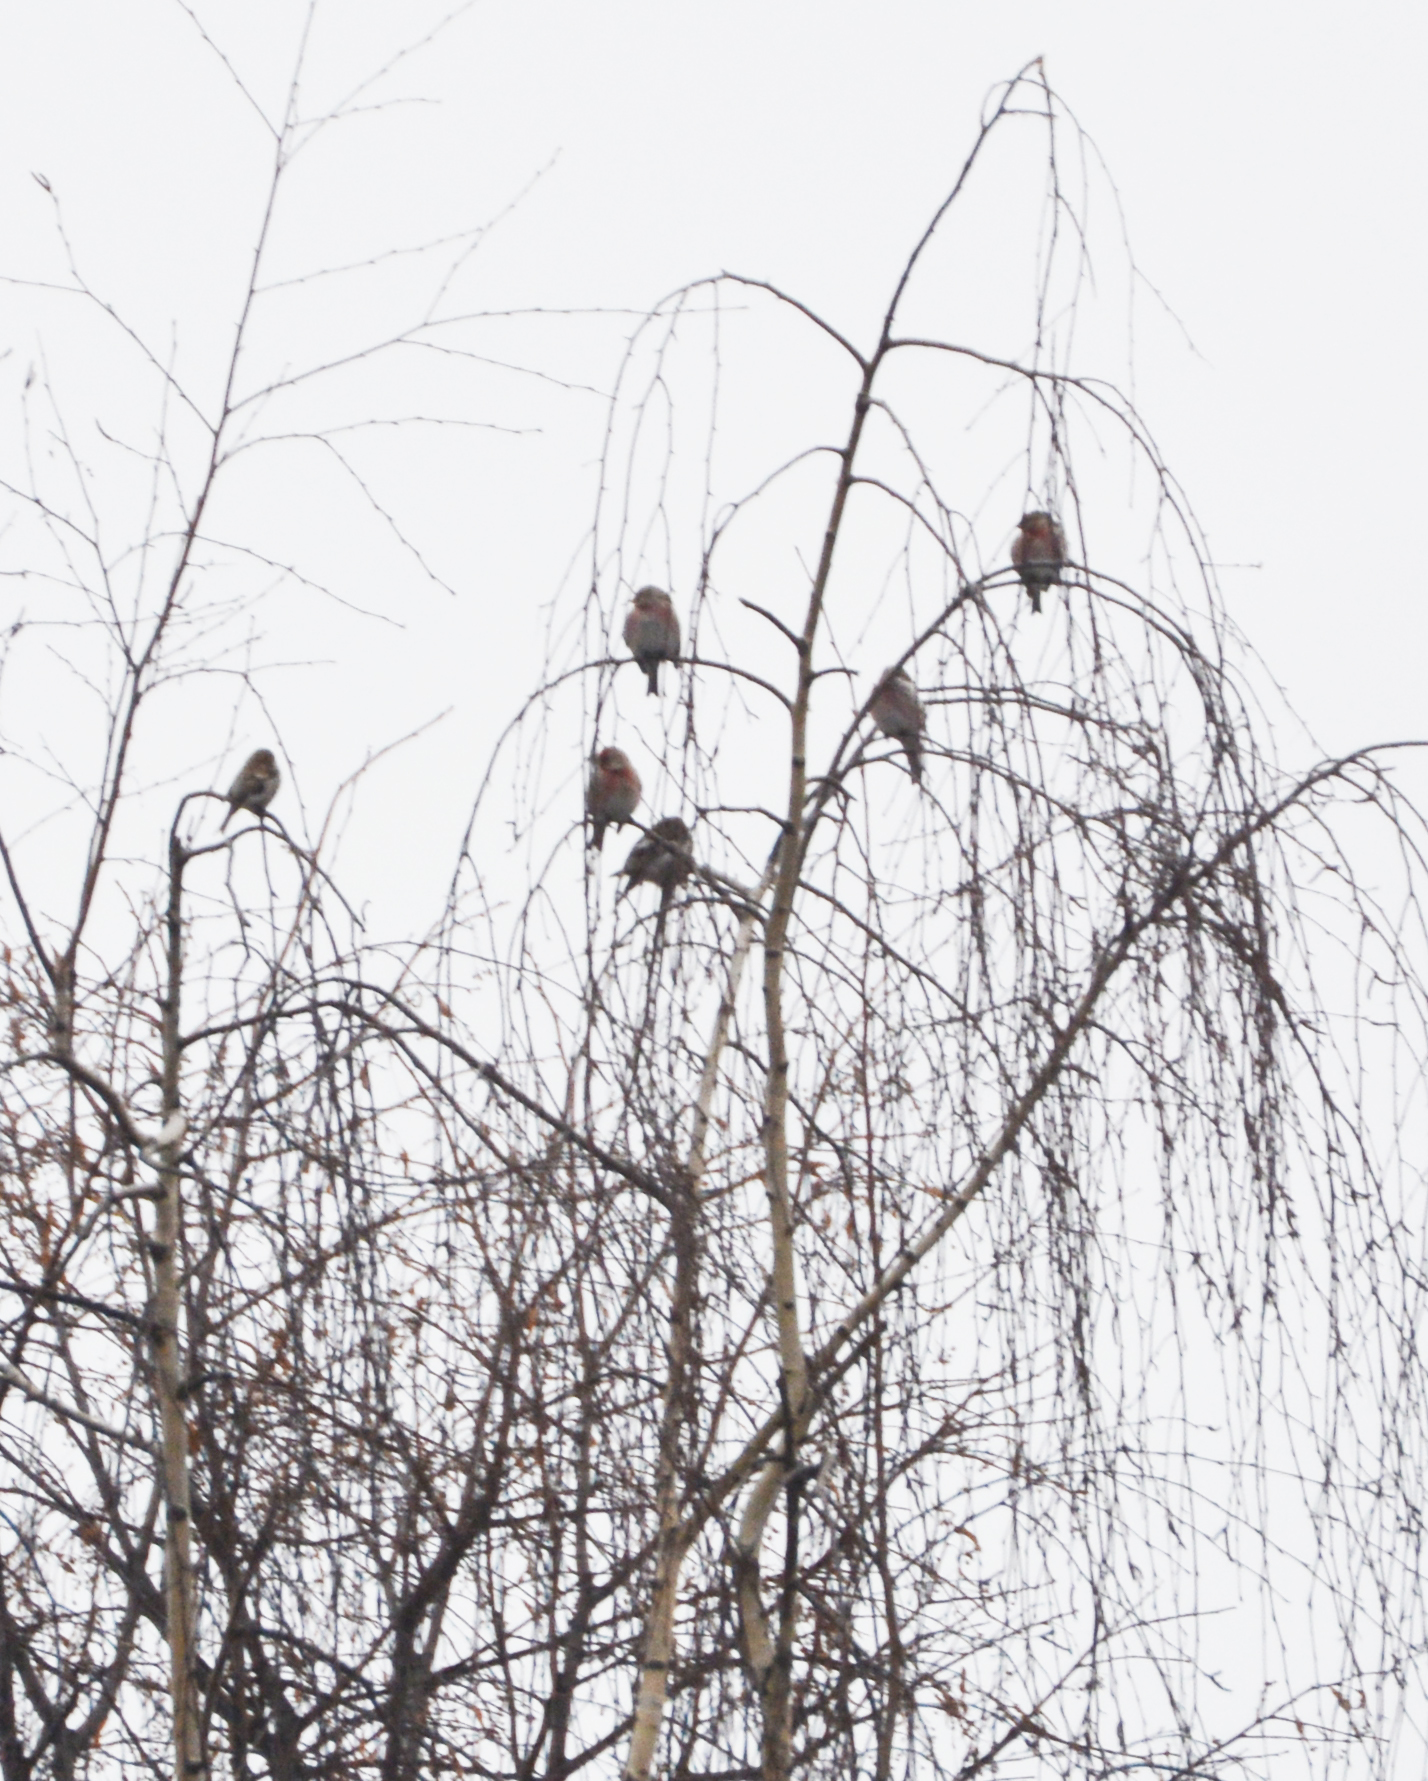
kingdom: Animalia
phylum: Chordata
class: Aves
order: Passeriformes
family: Fringillidae
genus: Acanthis
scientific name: Acanthis flammea
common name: Common redpoll
